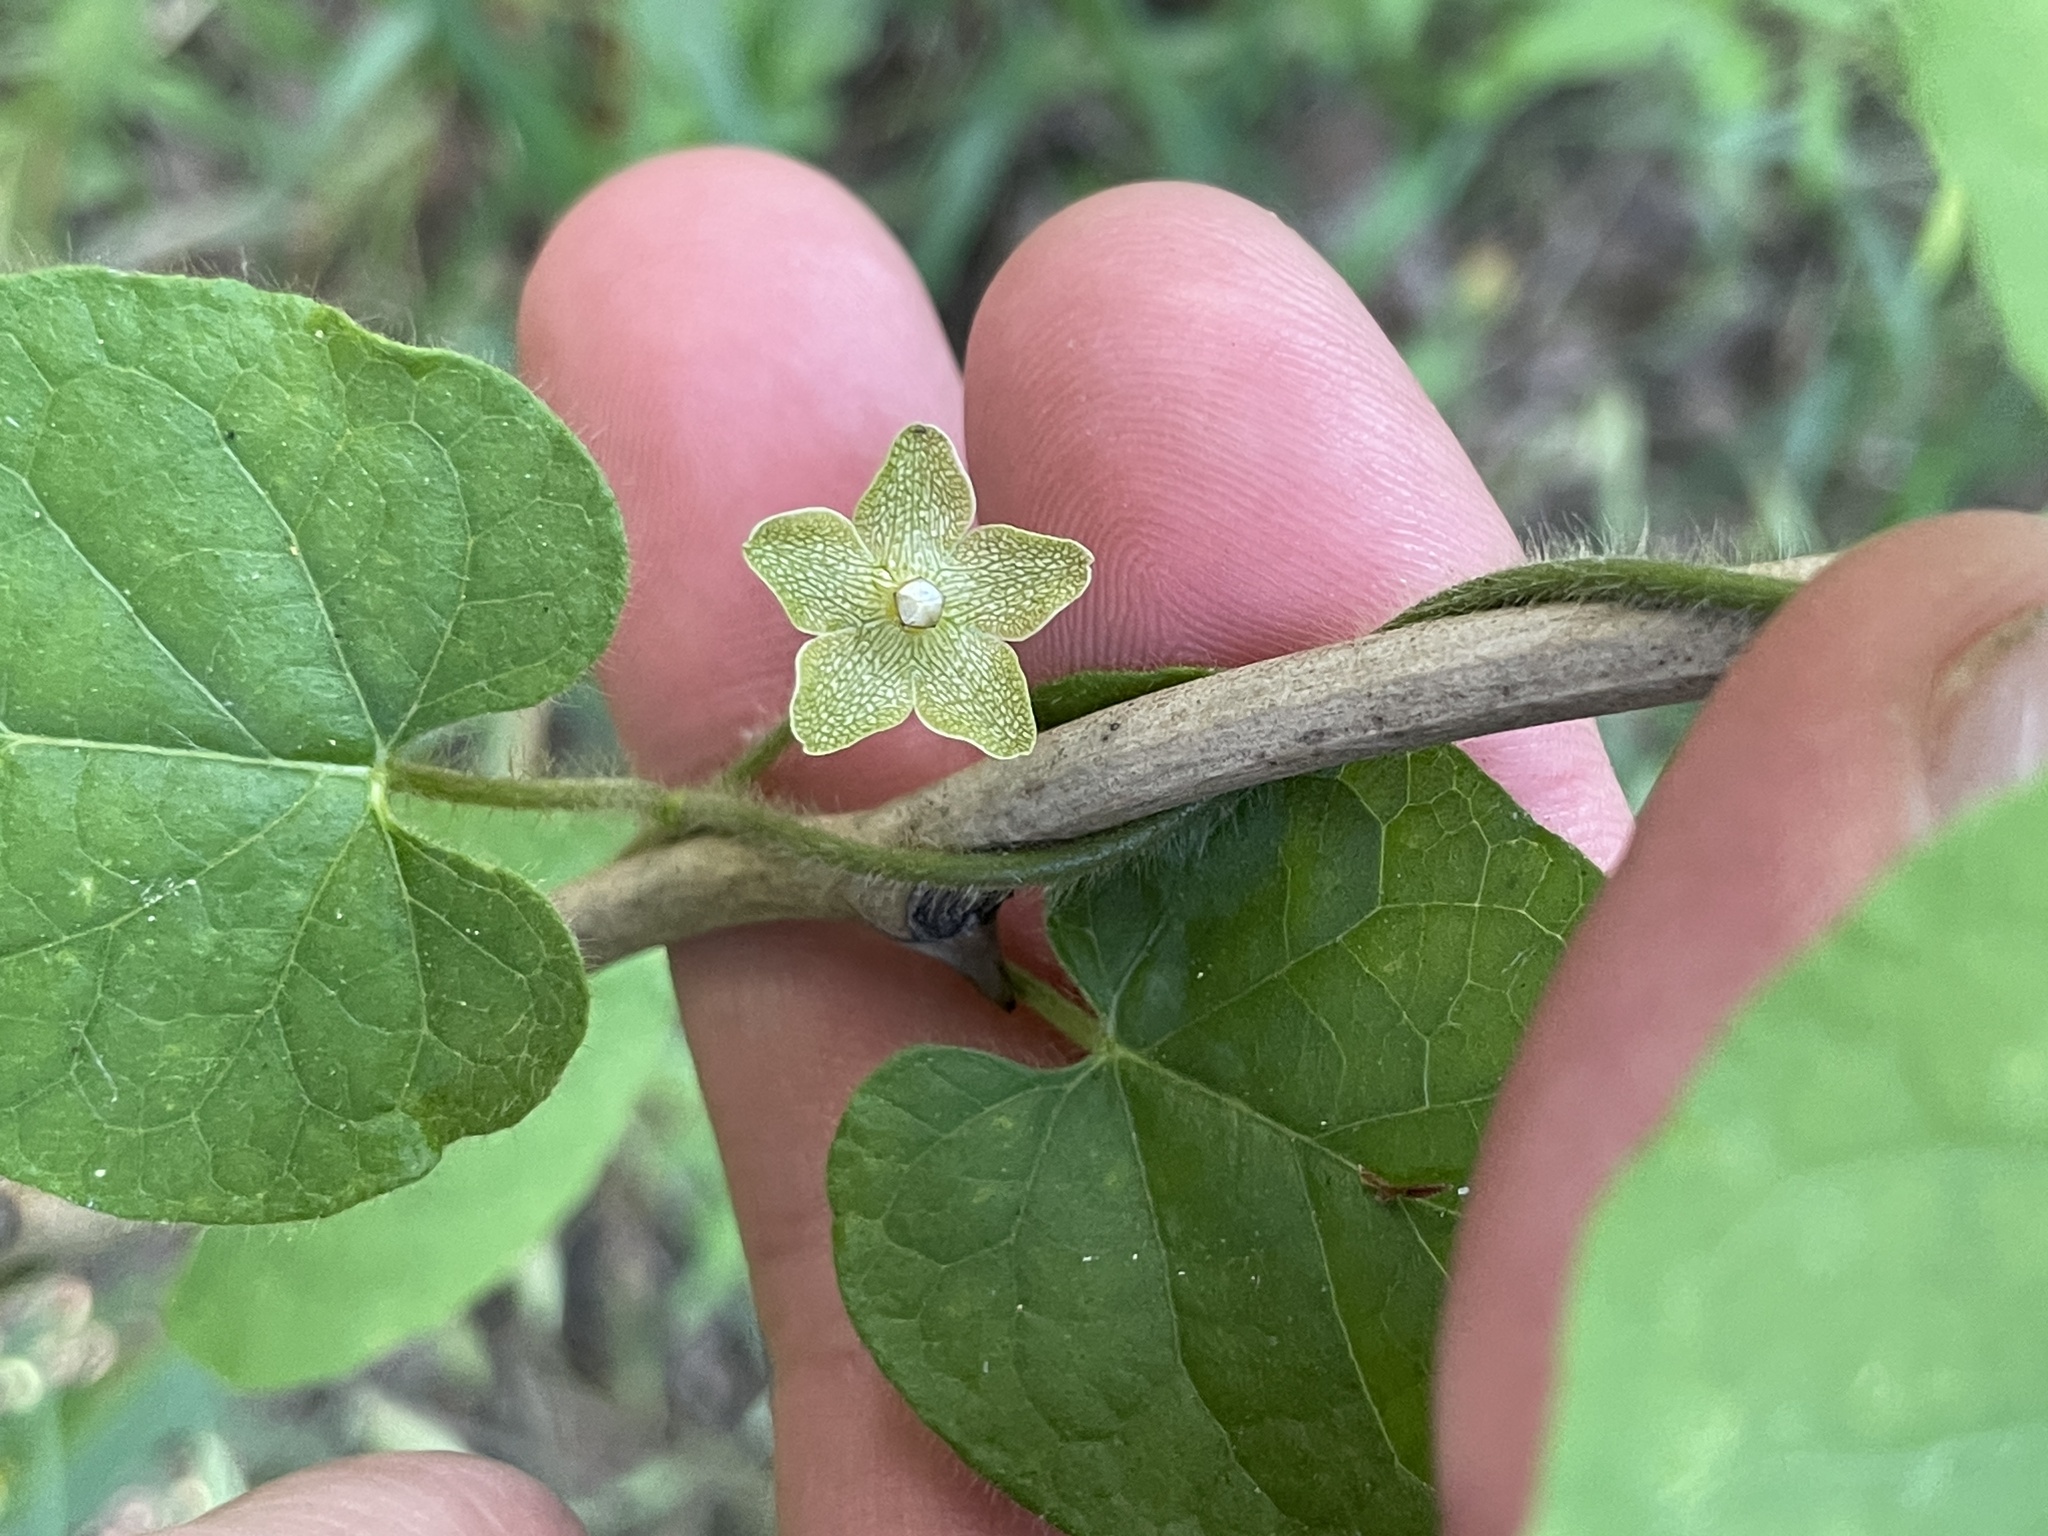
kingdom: Plantae
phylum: Tracheophyta
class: Magnoliopsida
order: Gentianales
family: Apocynaceae
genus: Dictyanthus
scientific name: Dictyanthus reticulatus
